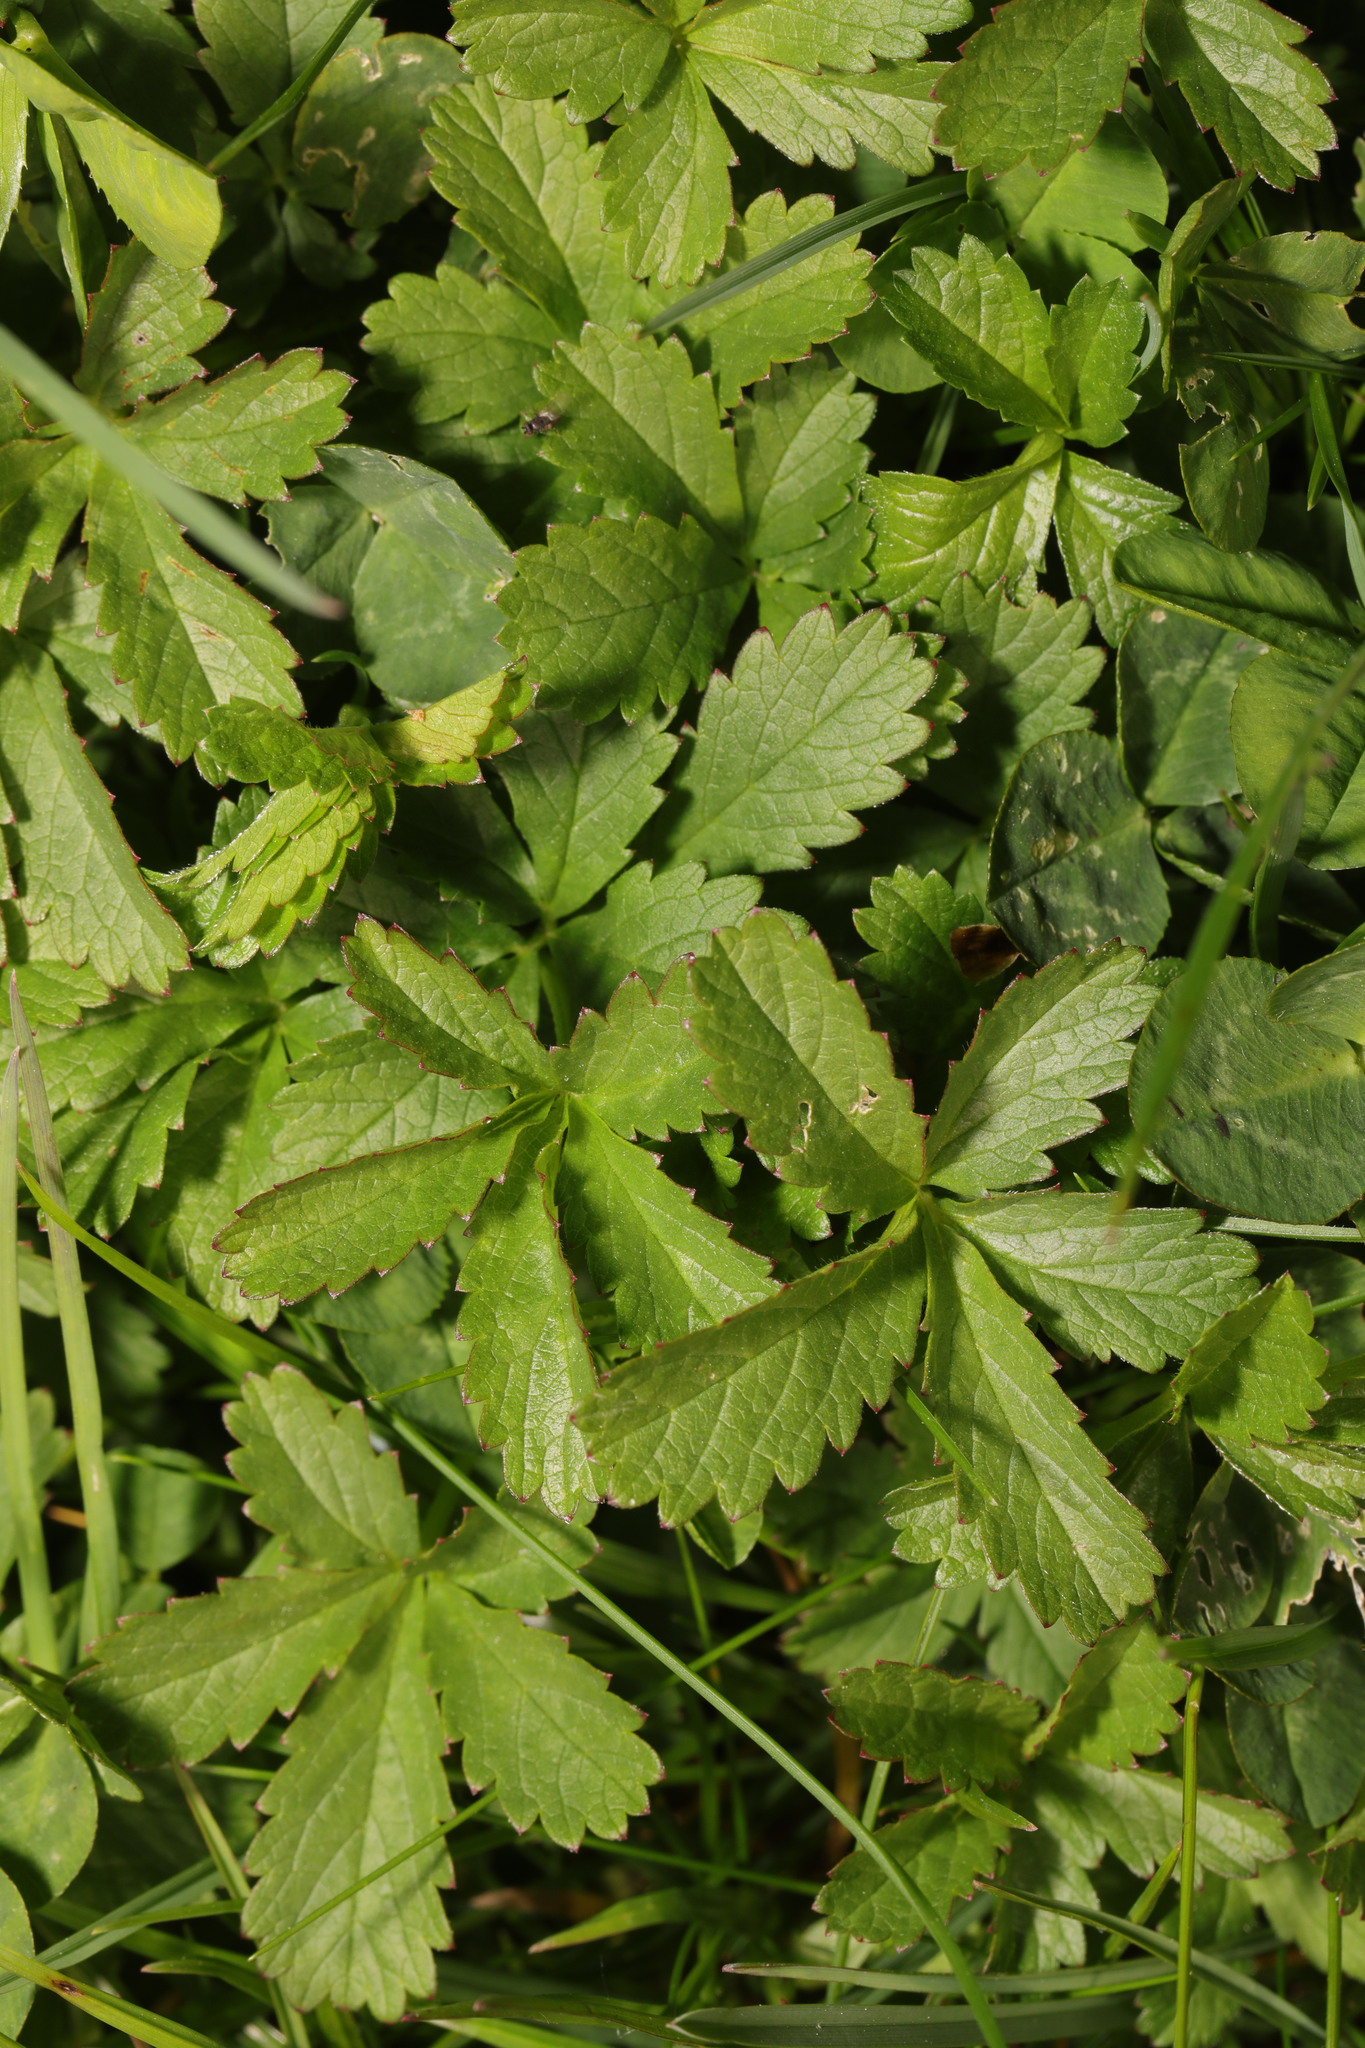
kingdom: Plantae
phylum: Tracheophyta
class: Magnoliopsida
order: Rosales
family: Rosaceae
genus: Potentilla
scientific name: Potentilla reptans
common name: Creeping cinquefoil
